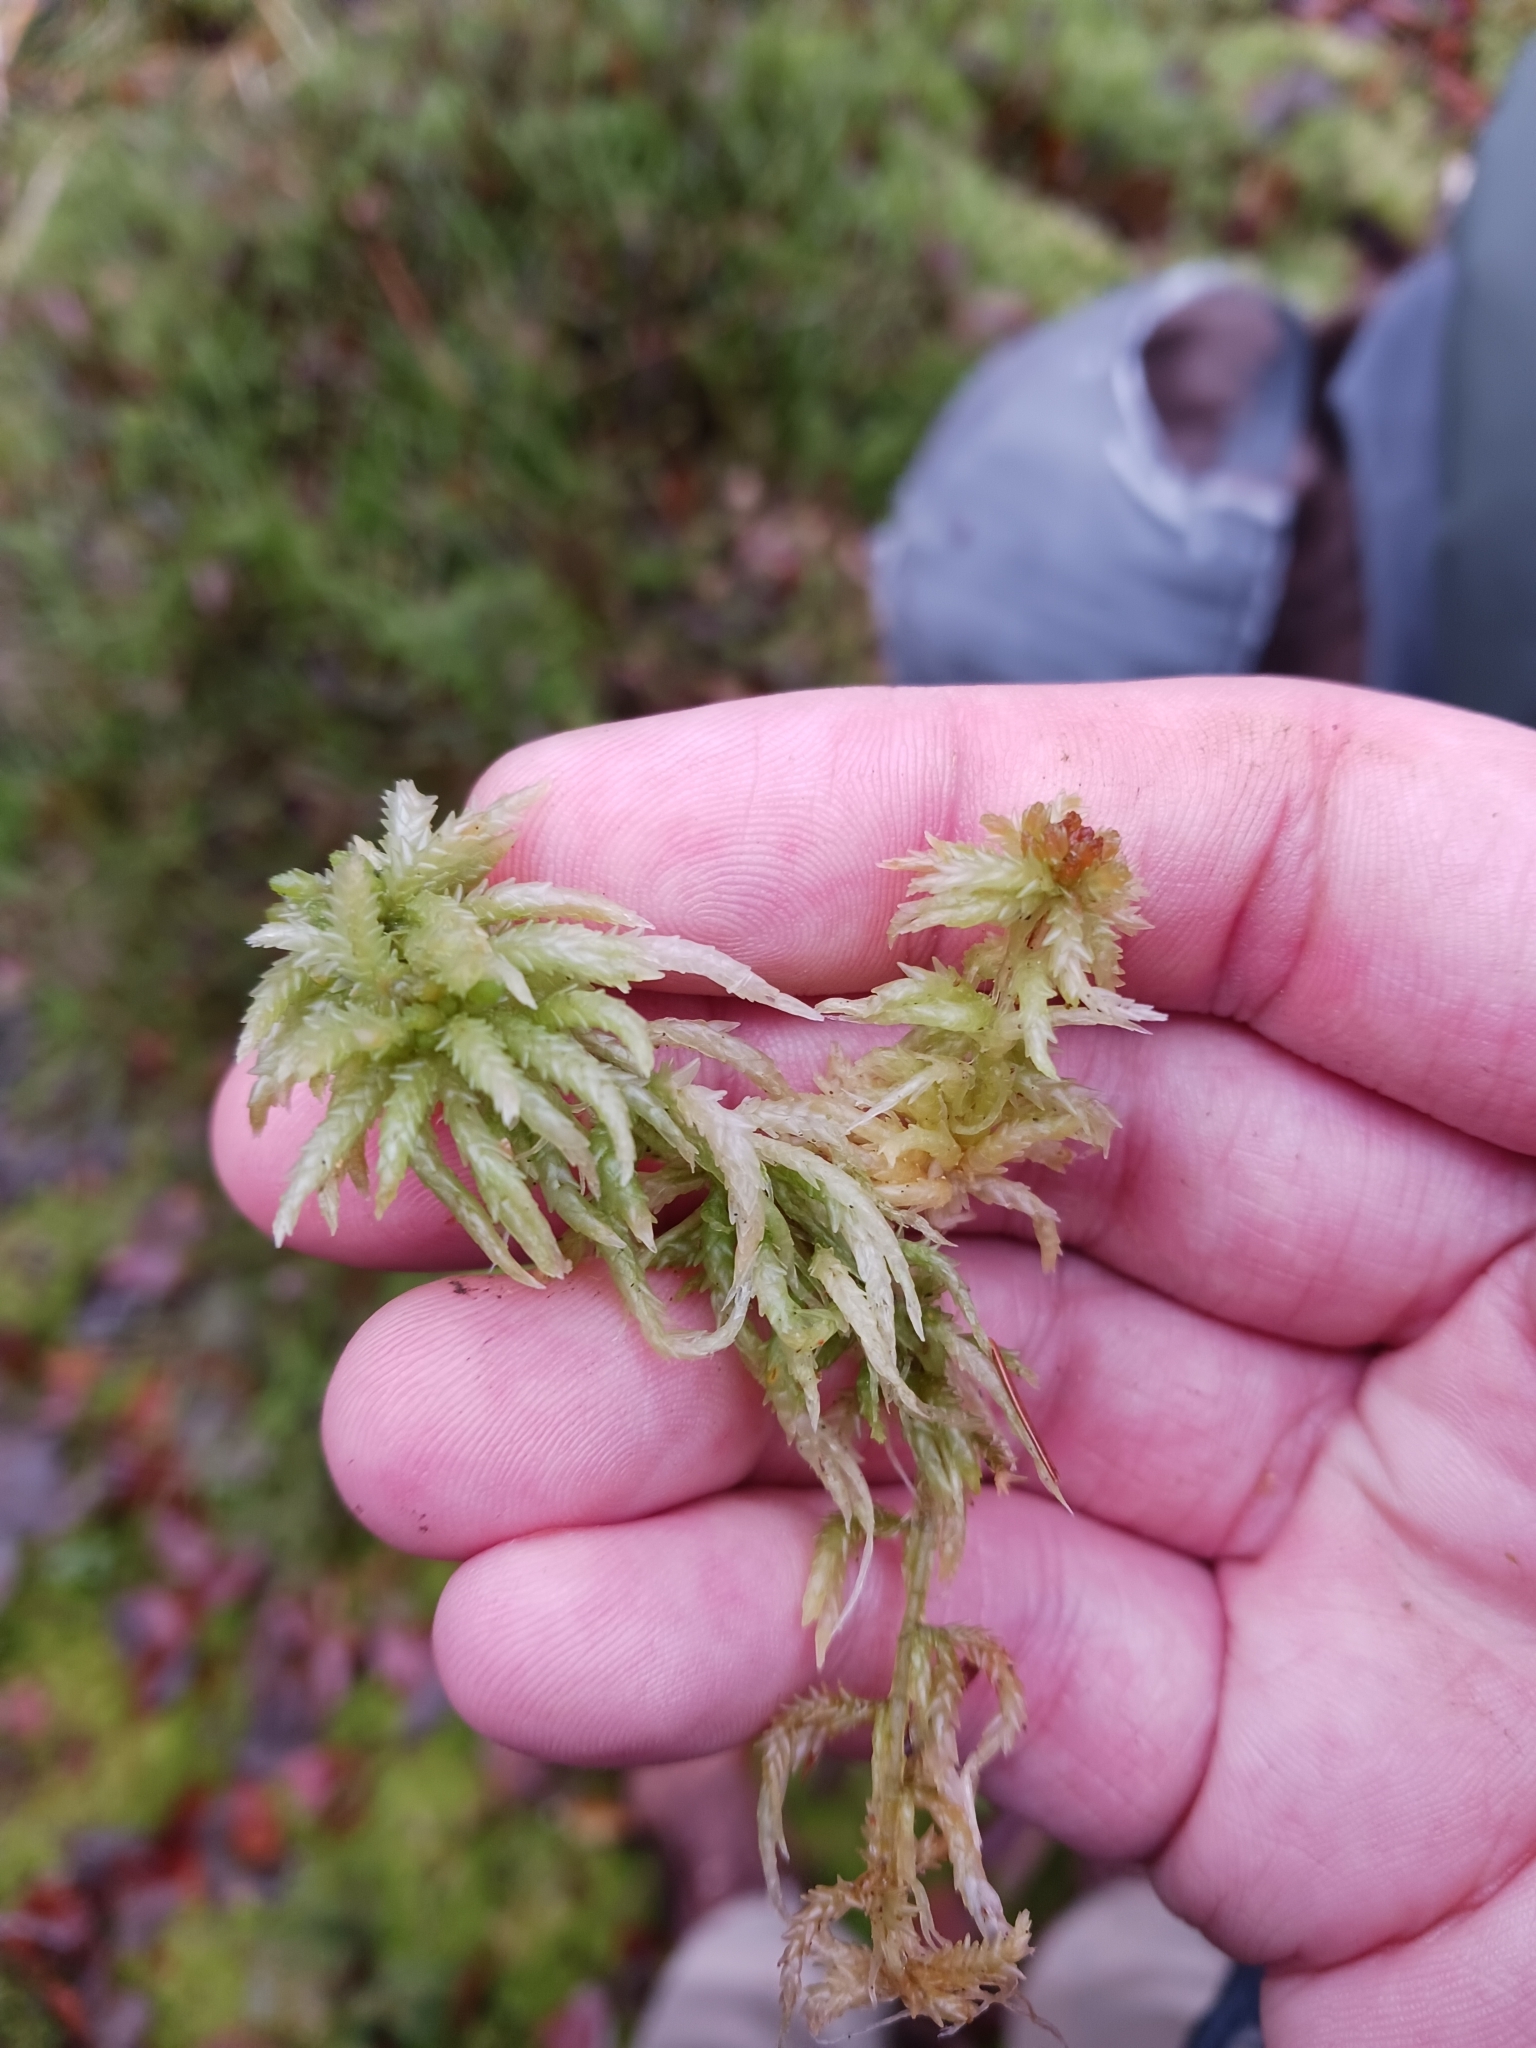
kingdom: Plantae
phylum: Bryophyta
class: Sphagnopsida
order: Sphagnales
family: Sphagnaceae
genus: Sphagnum
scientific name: Sphagnum palustre
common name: Blunt-leaved bog-moss
